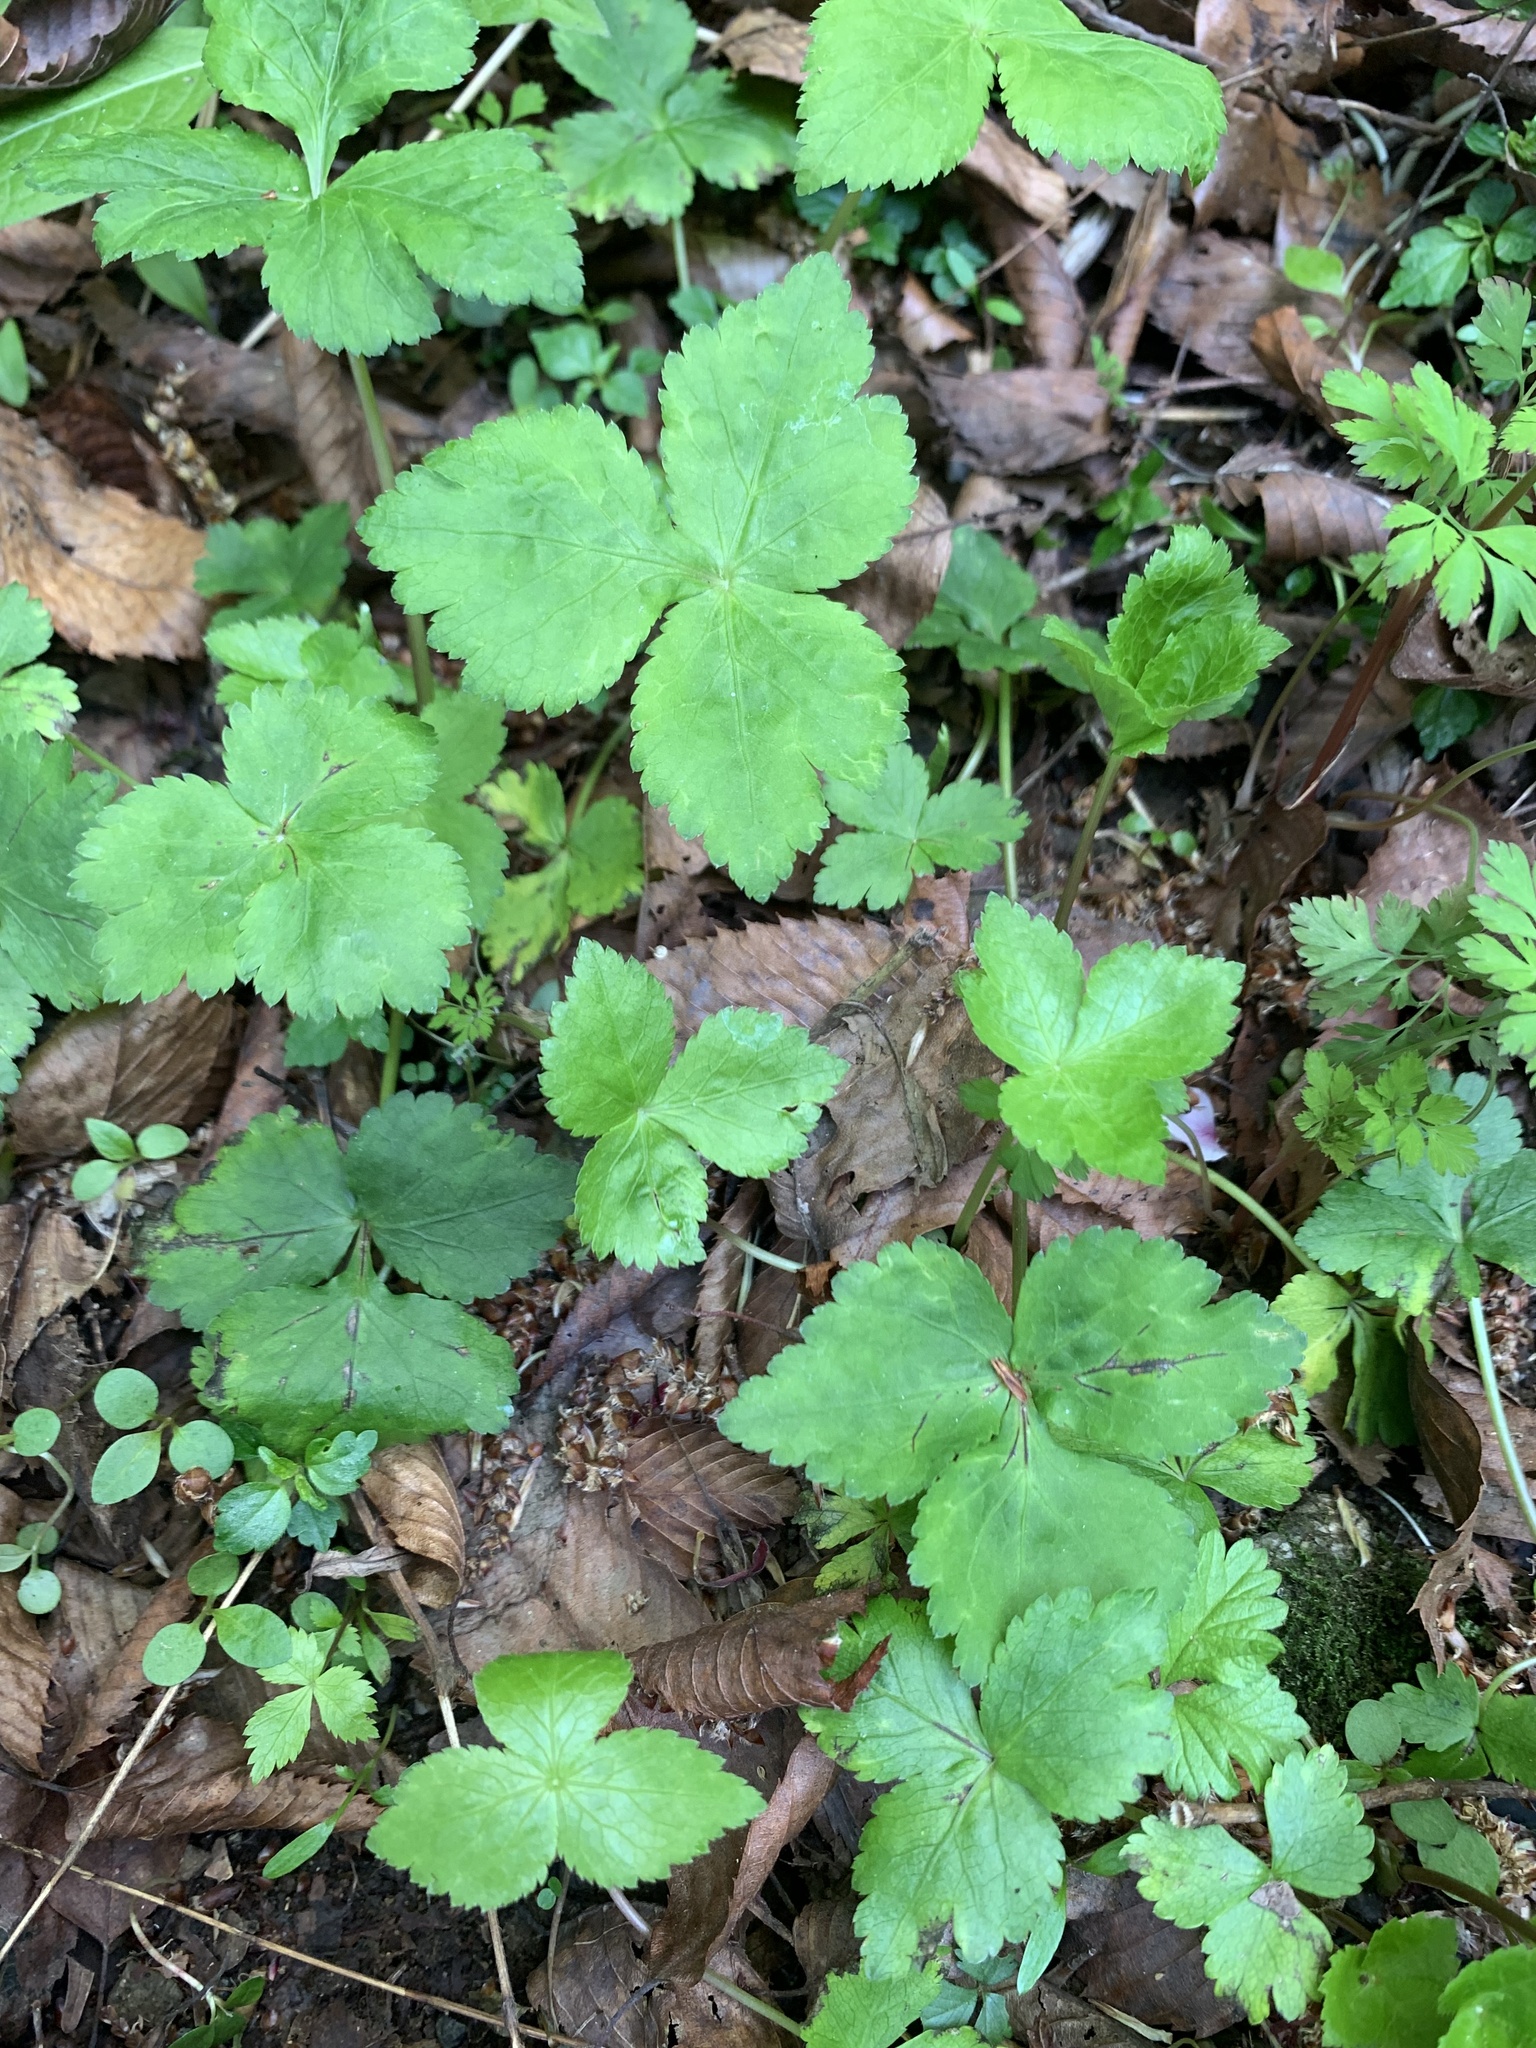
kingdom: Plantae
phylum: Tracheophyta
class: Magnoliopsida
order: Apiales
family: Apiaceae
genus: Cryptotaenia
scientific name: Cryptotaenia japonica
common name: Japanese cryptotaenia
